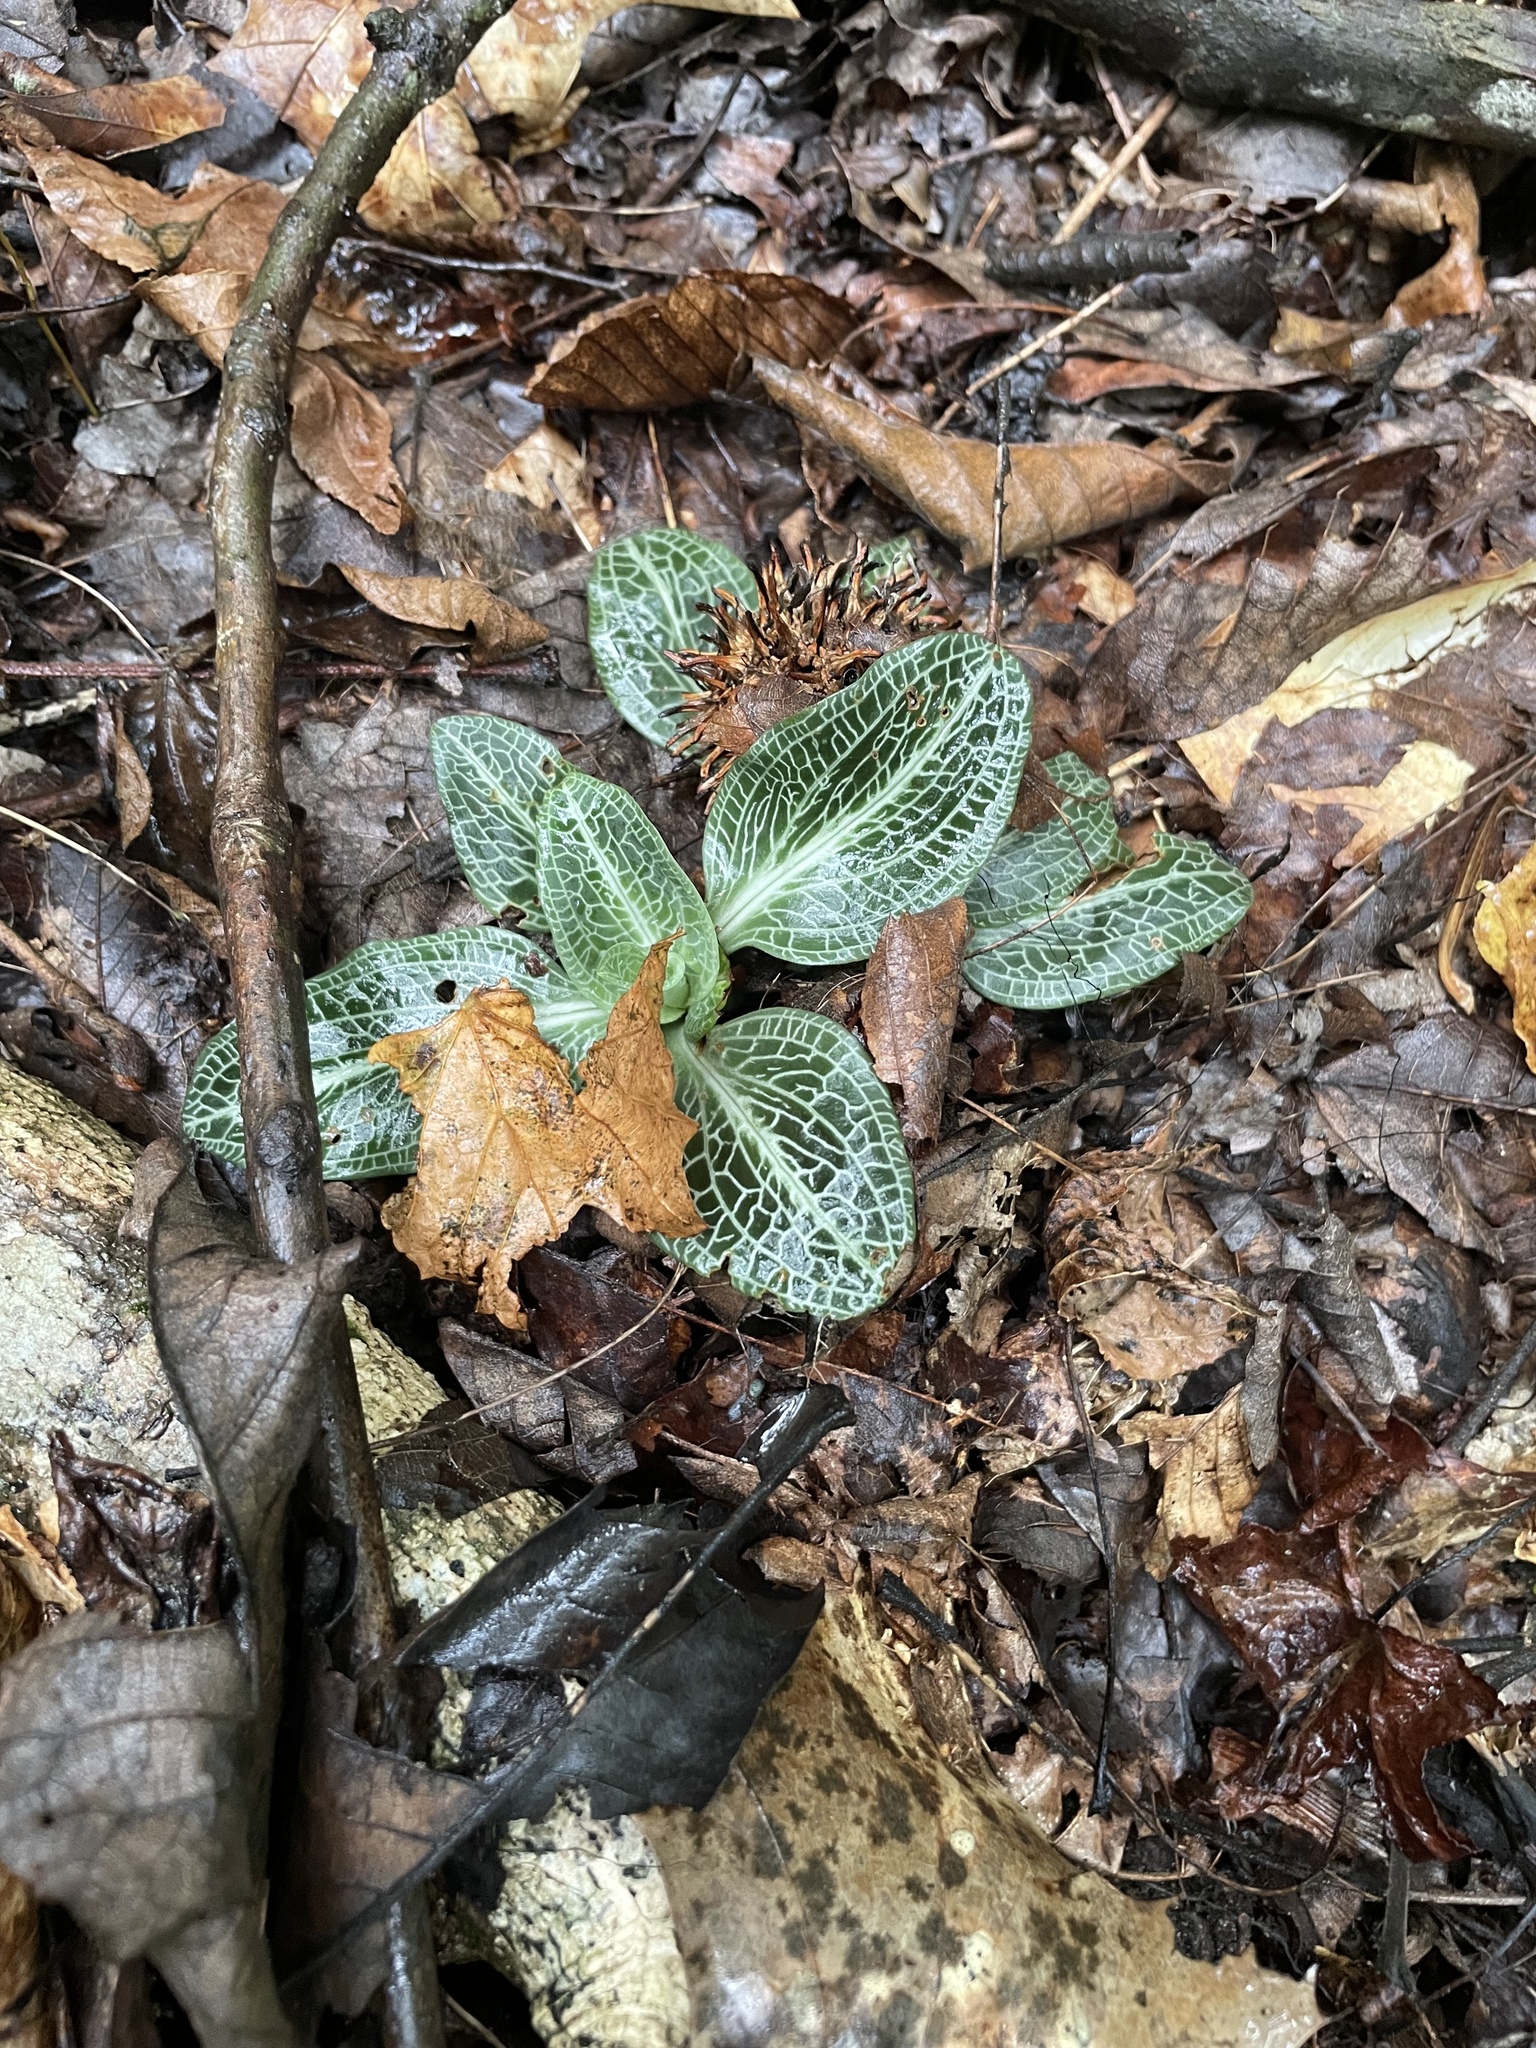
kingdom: Plantae
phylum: Tracheophyta
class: Liliopsida
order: Asparagales
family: Orchidaceae
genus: Goodyera
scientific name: Goodyera pubescens
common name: Downy rattlesnake-plantain
